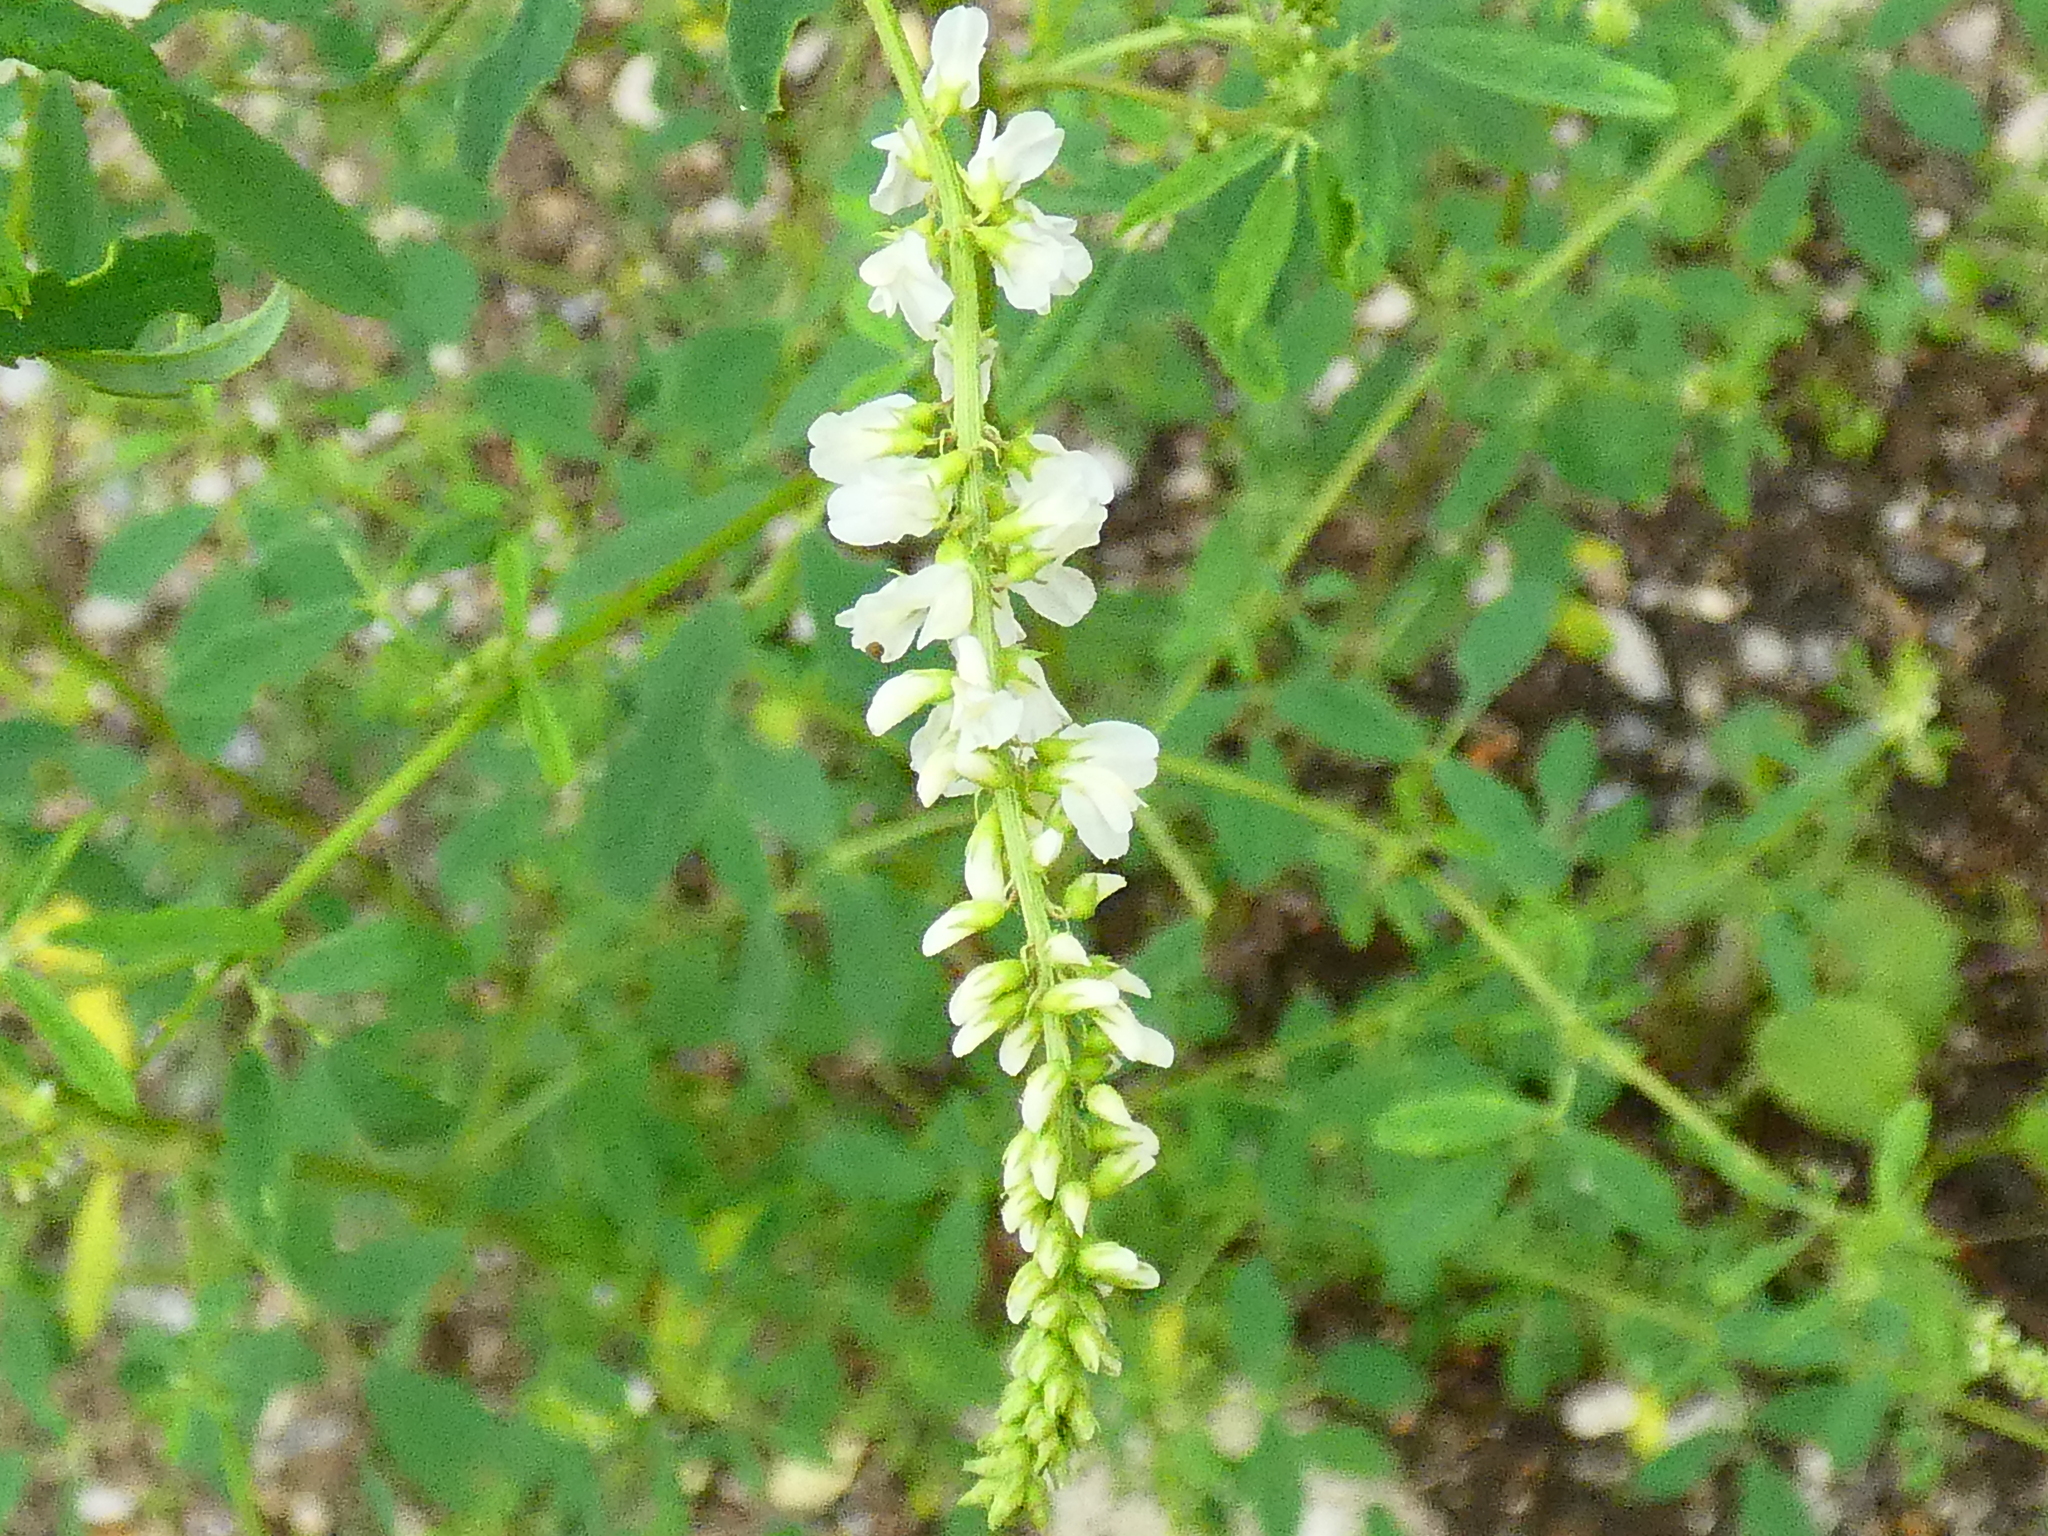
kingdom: Plantae
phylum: Tracheophyta
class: Magnoliopsida
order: Fabales
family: Fabaceae
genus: Melilotus
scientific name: Melilotus albus
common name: White melilot
